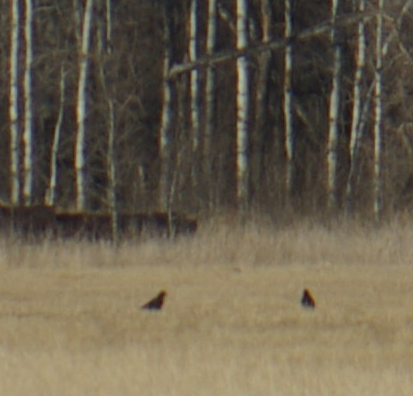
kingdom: Animalia
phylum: Chordata
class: Aves
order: Passeriformes
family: Corvidae
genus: Corvus
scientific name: Corvus brachyrhynchos
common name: American crow
